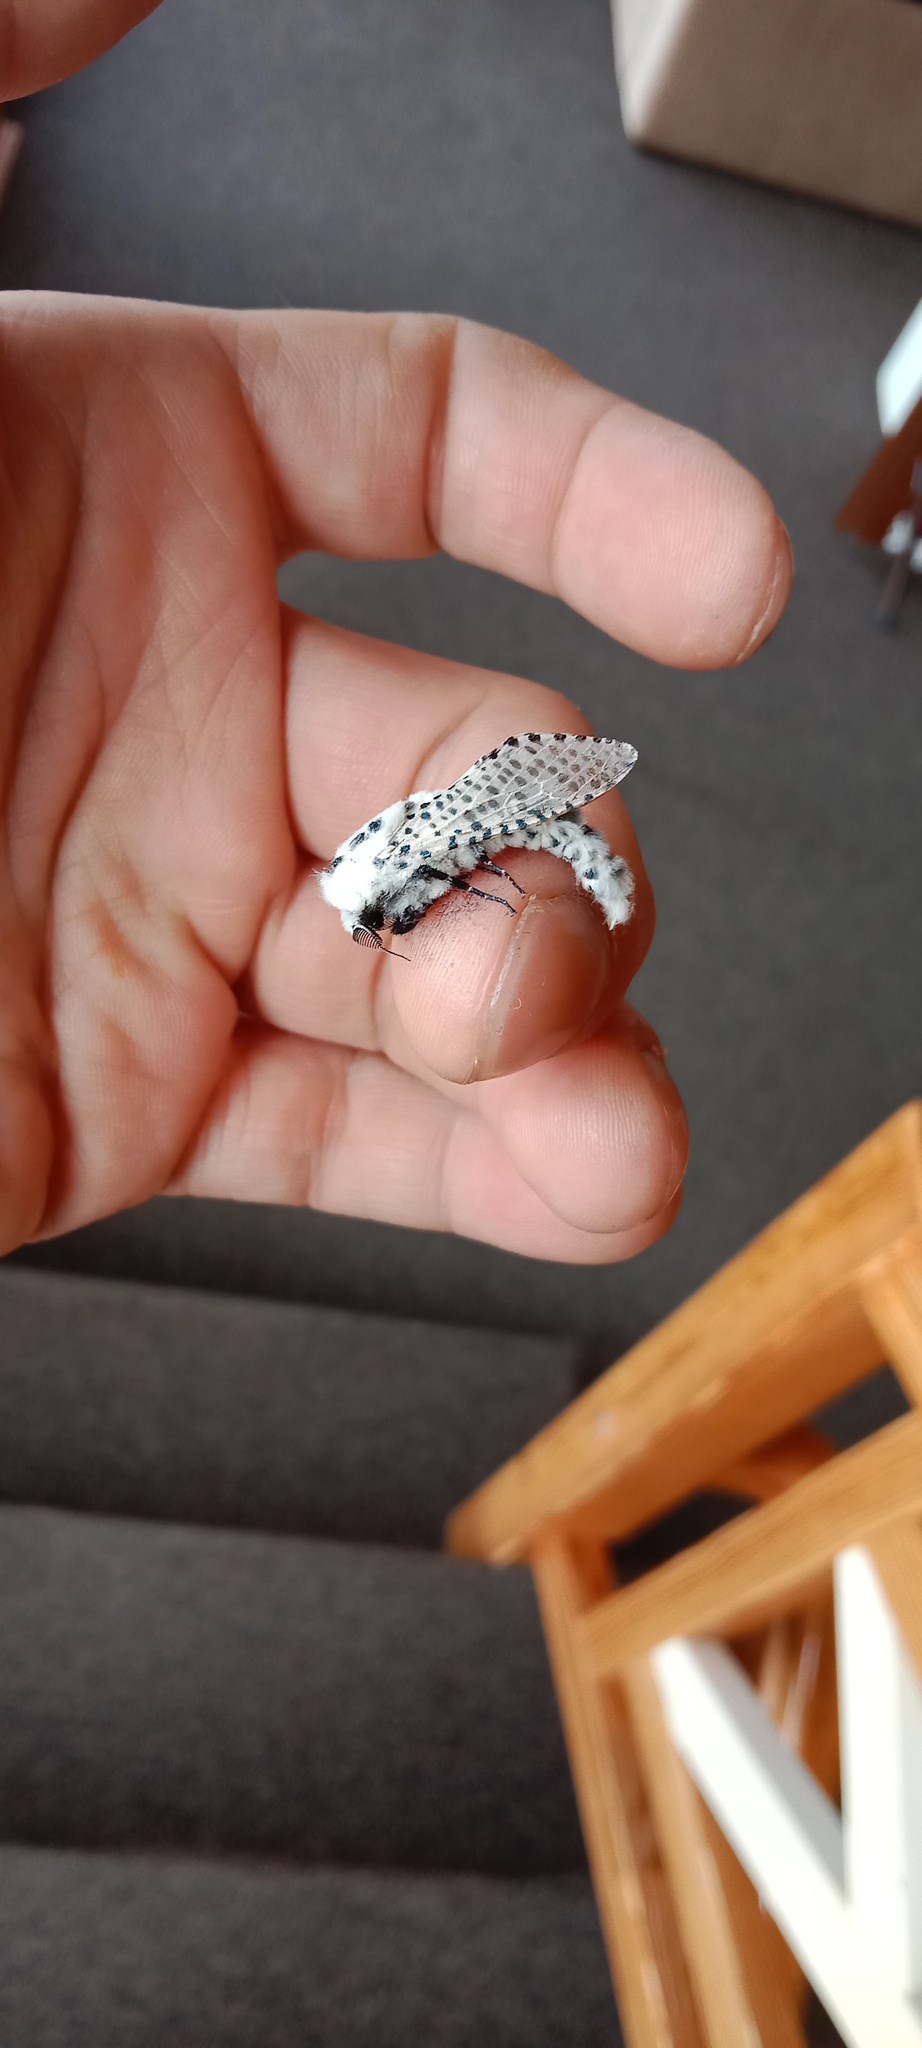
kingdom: Animalia
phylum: Arthropoda
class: Insecta
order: Lepidoptera
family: Cossidae
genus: Zeuzera
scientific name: Zeuzera pyrina
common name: Leopard moth
